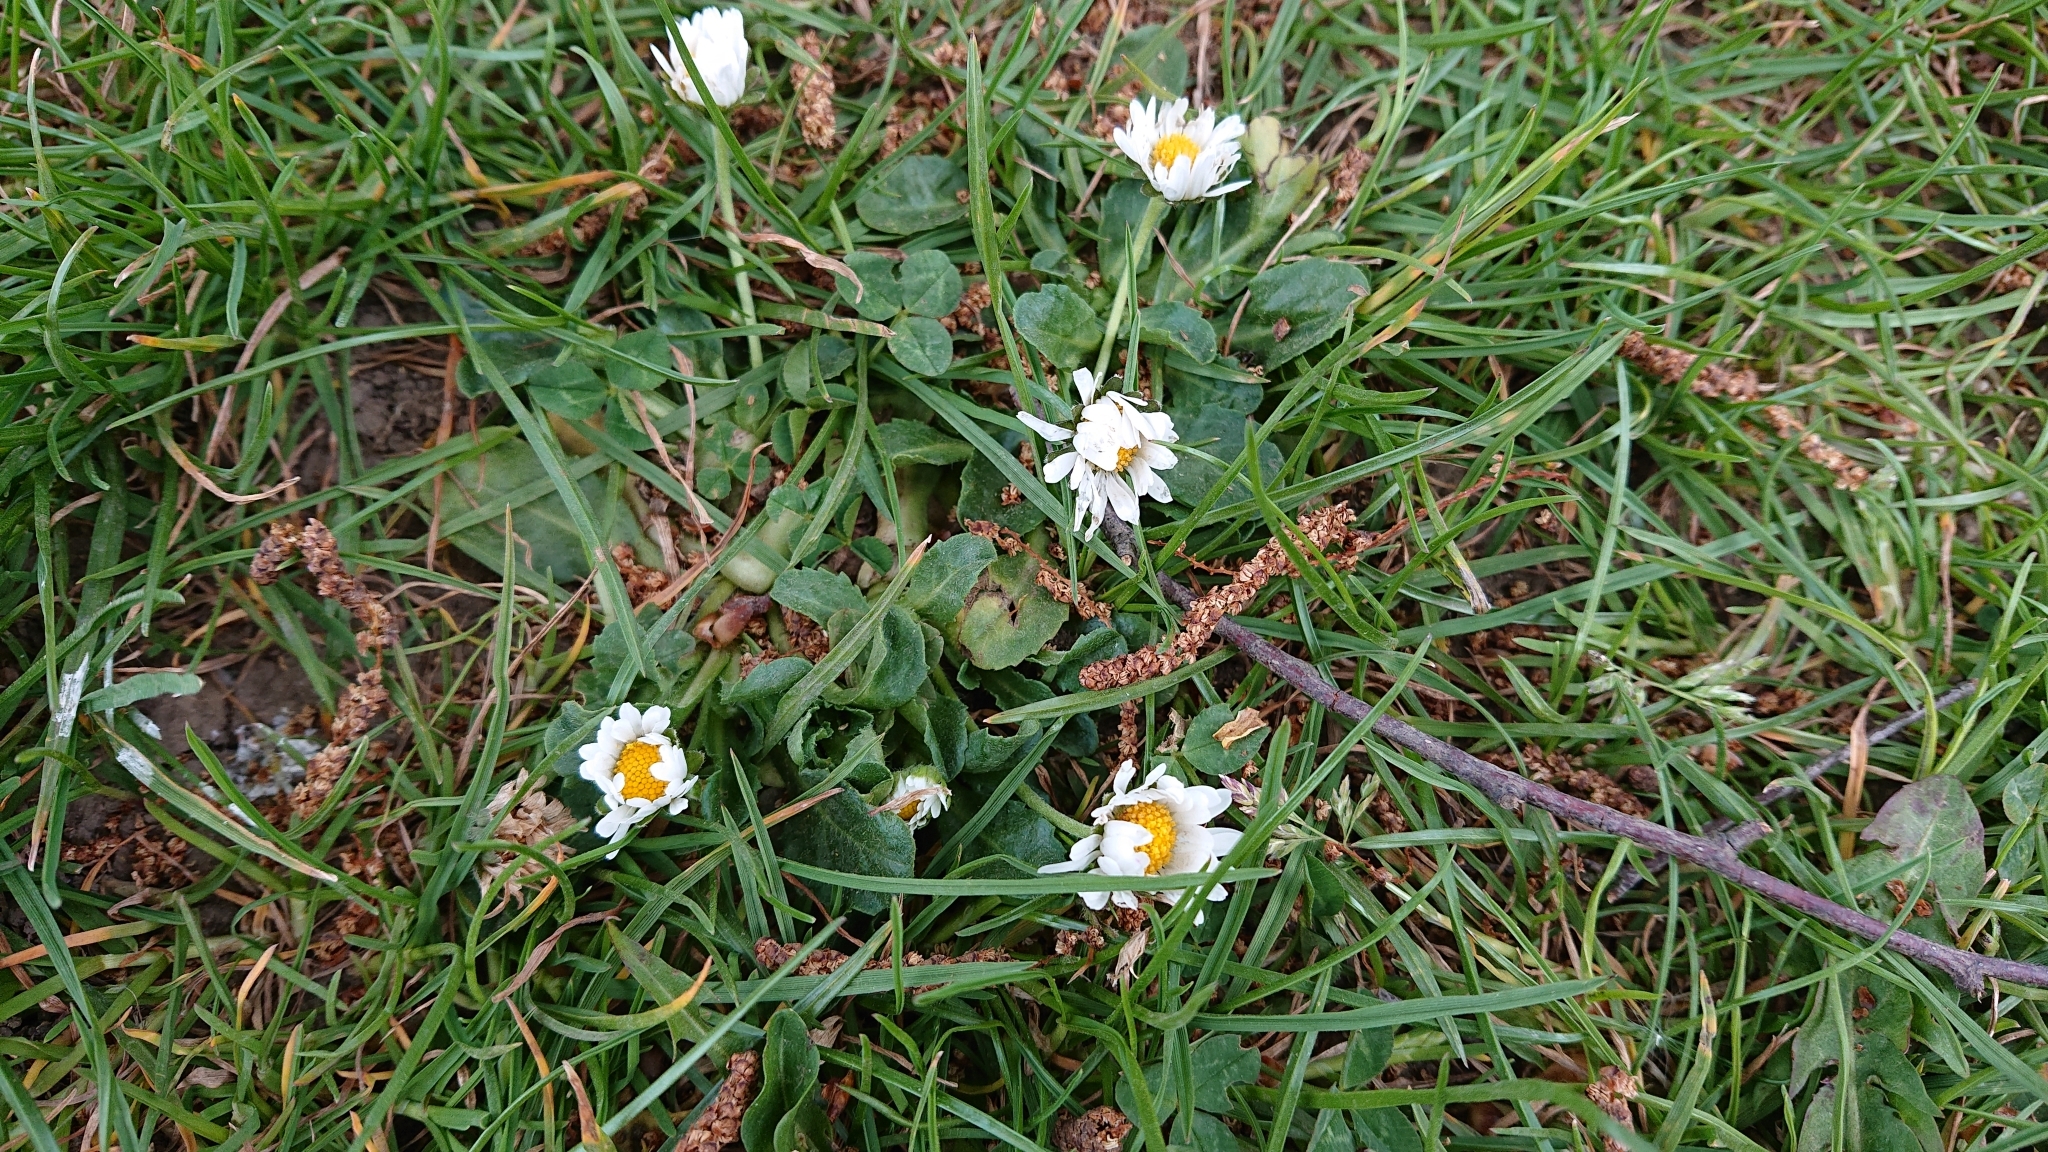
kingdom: Plantae
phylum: Tracheophyta
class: Magnoliopsida
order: Asterales
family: Asteraceae
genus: Bellis
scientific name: Bellis perennis
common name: Lawndaisy
